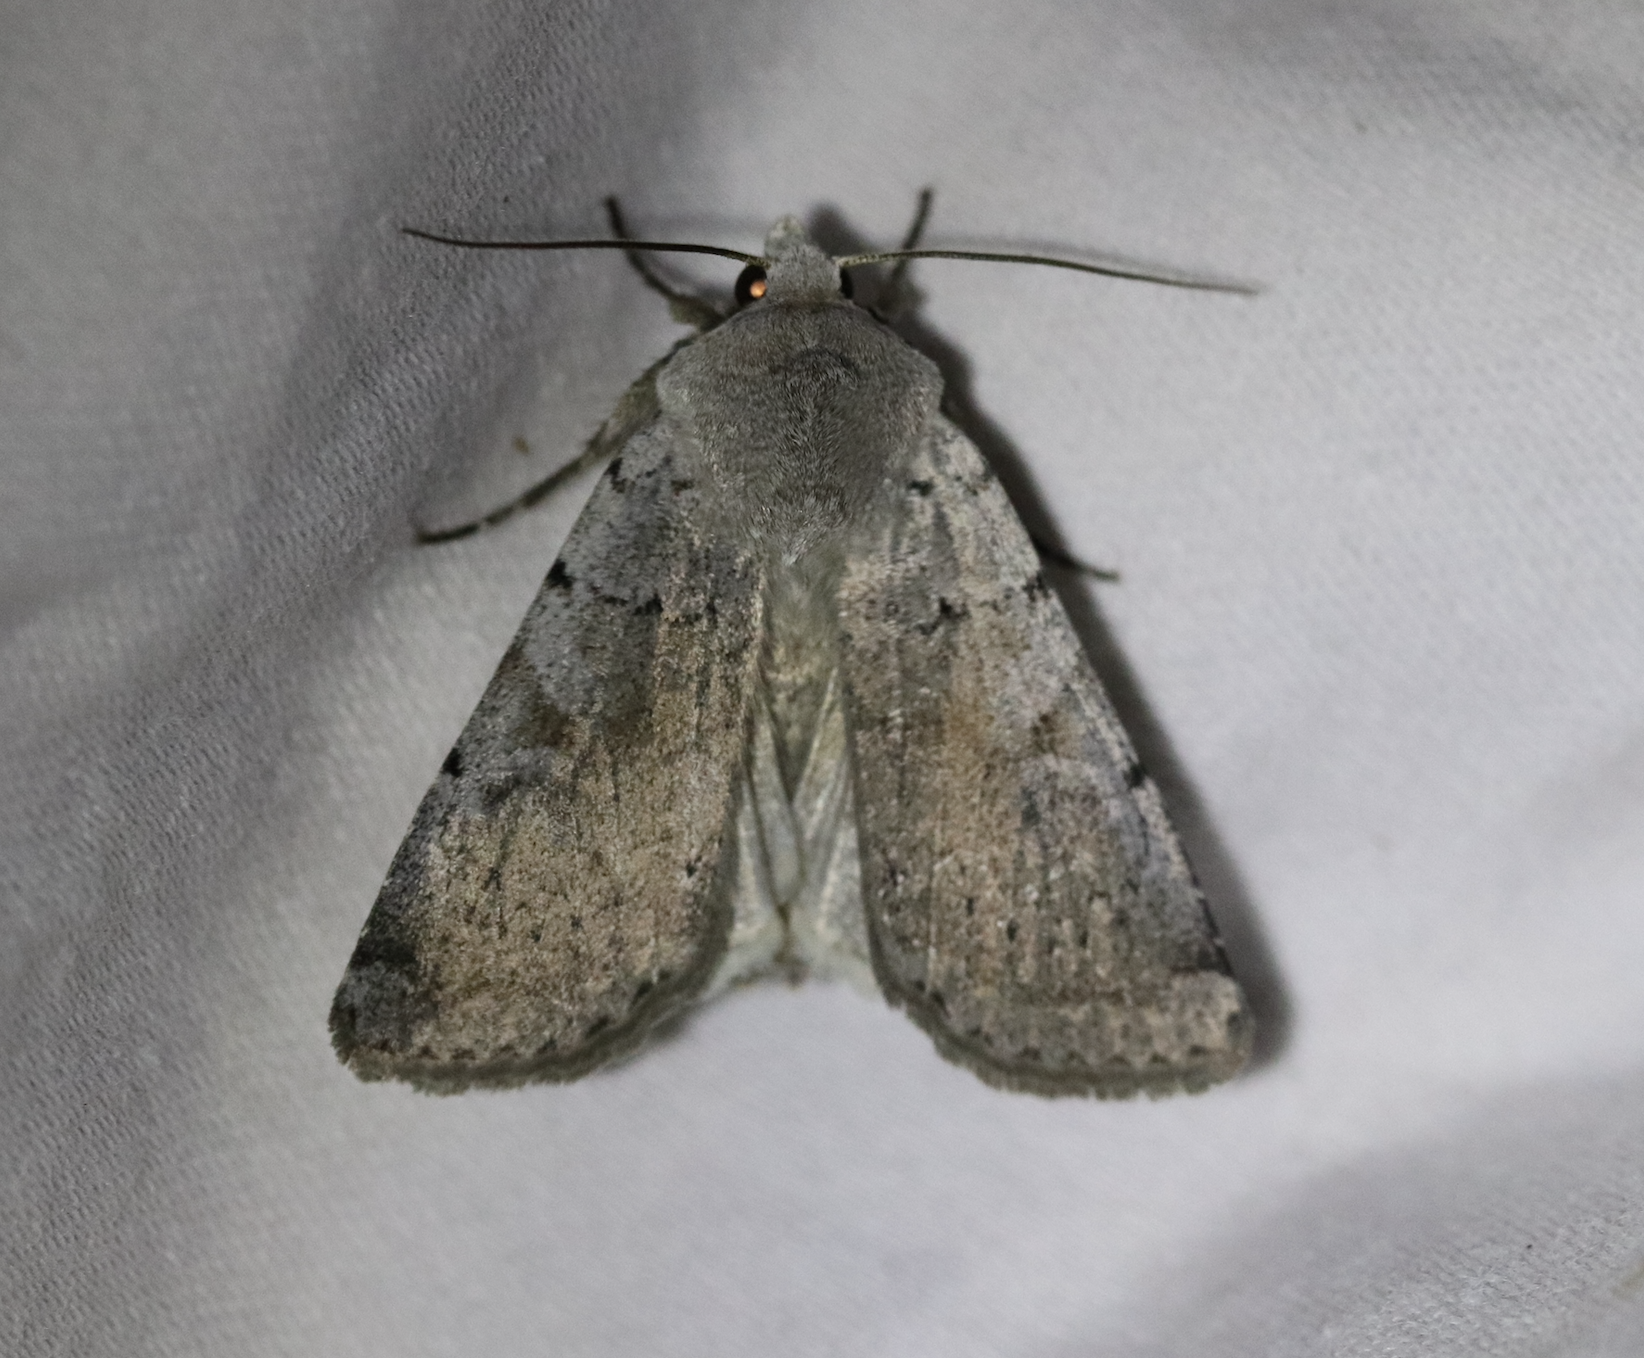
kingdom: Animalia
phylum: Arthropoda
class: Insecta
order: Lepidoptera
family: Noctuidae
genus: Xestia
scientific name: Xestia ashworthii
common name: Ashworth's rustic
